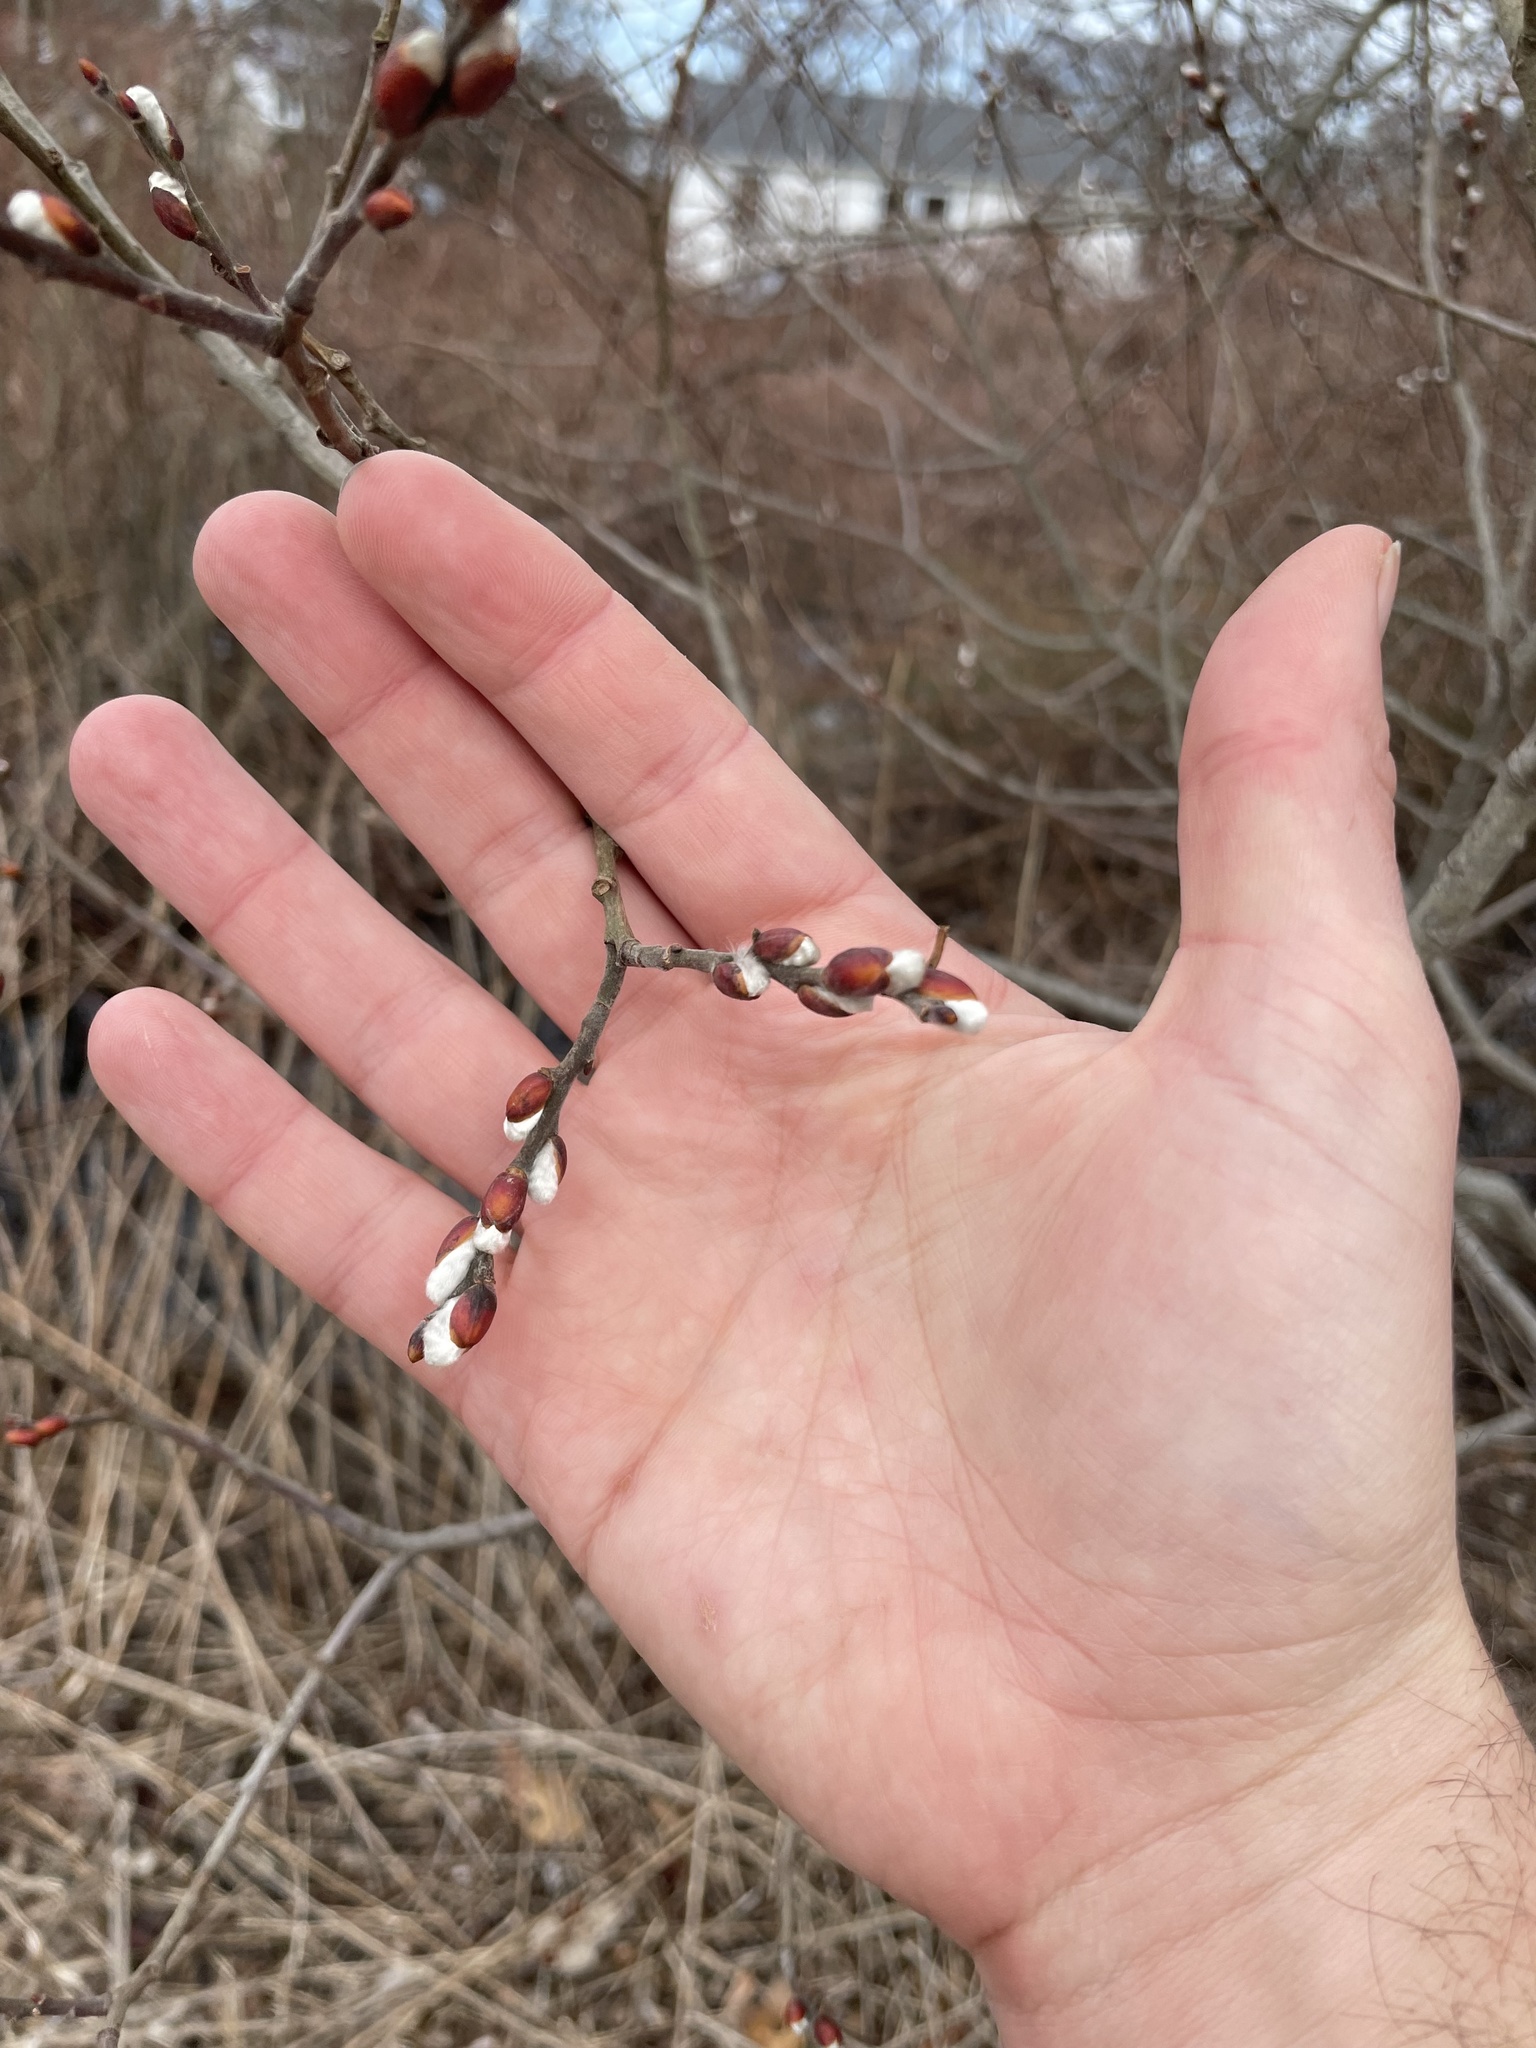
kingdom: Plantae
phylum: Tracheophyta
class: Magnoliopsida
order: Malpighiales
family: Salicaceae
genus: Salix
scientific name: Salix atrocinerea
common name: Rusty willow
